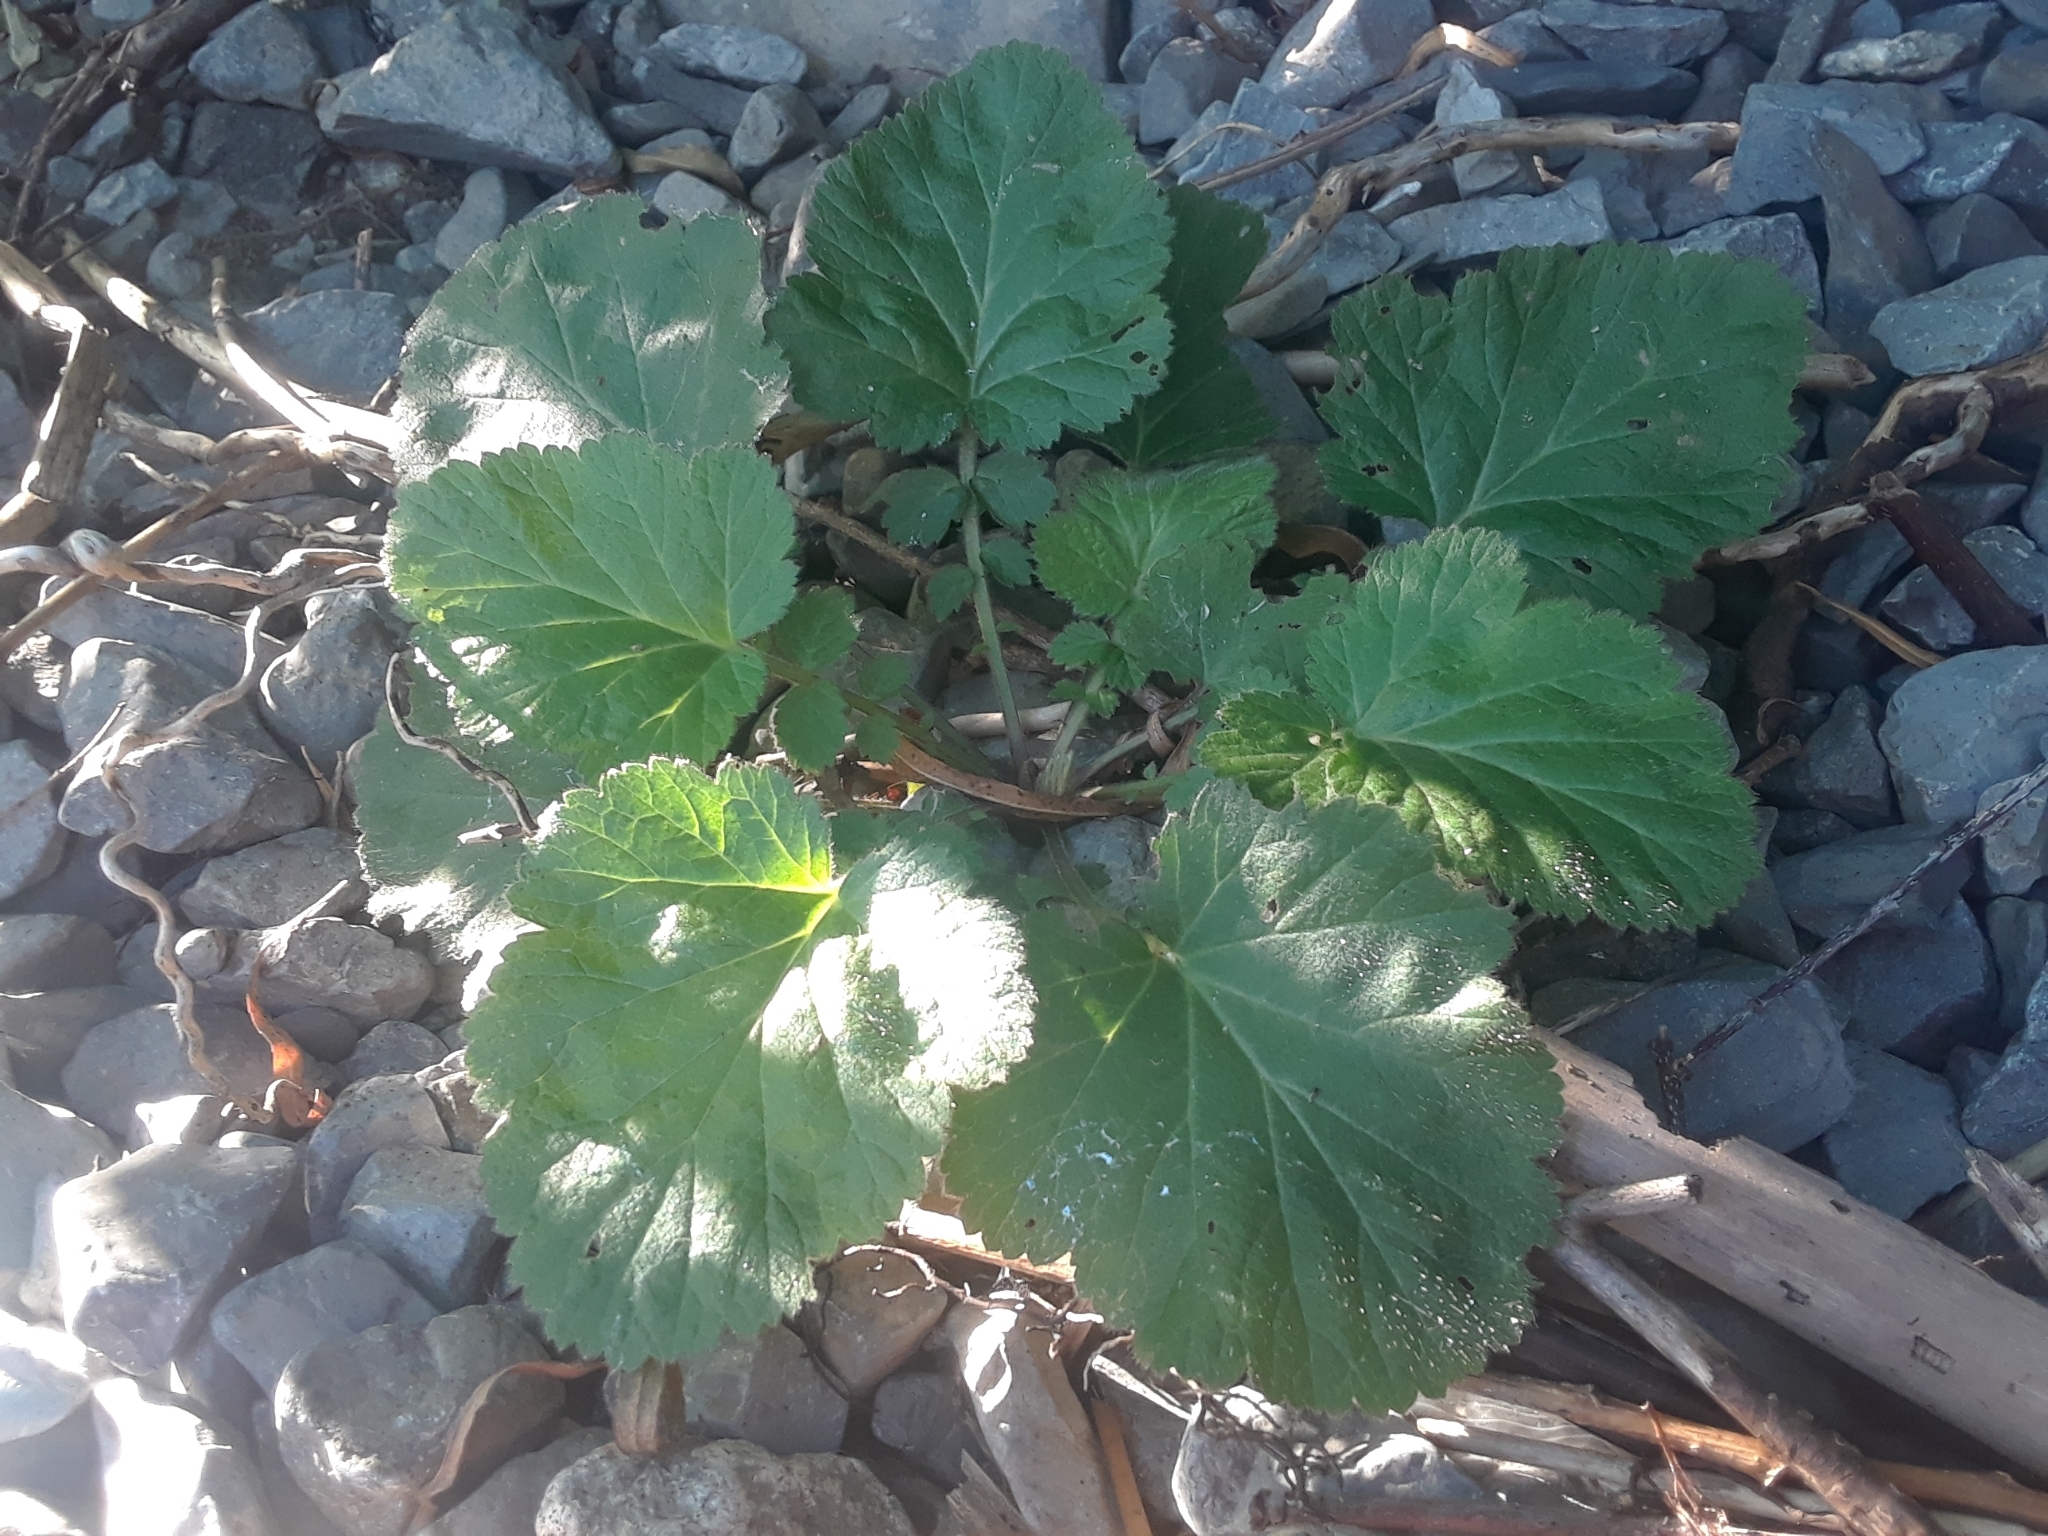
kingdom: Plantae
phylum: Tracheophyta
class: Magnoliopsida
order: Rosales
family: Rosaceae
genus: Geum
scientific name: Geum macrophyllum
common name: Large-leaved avens
